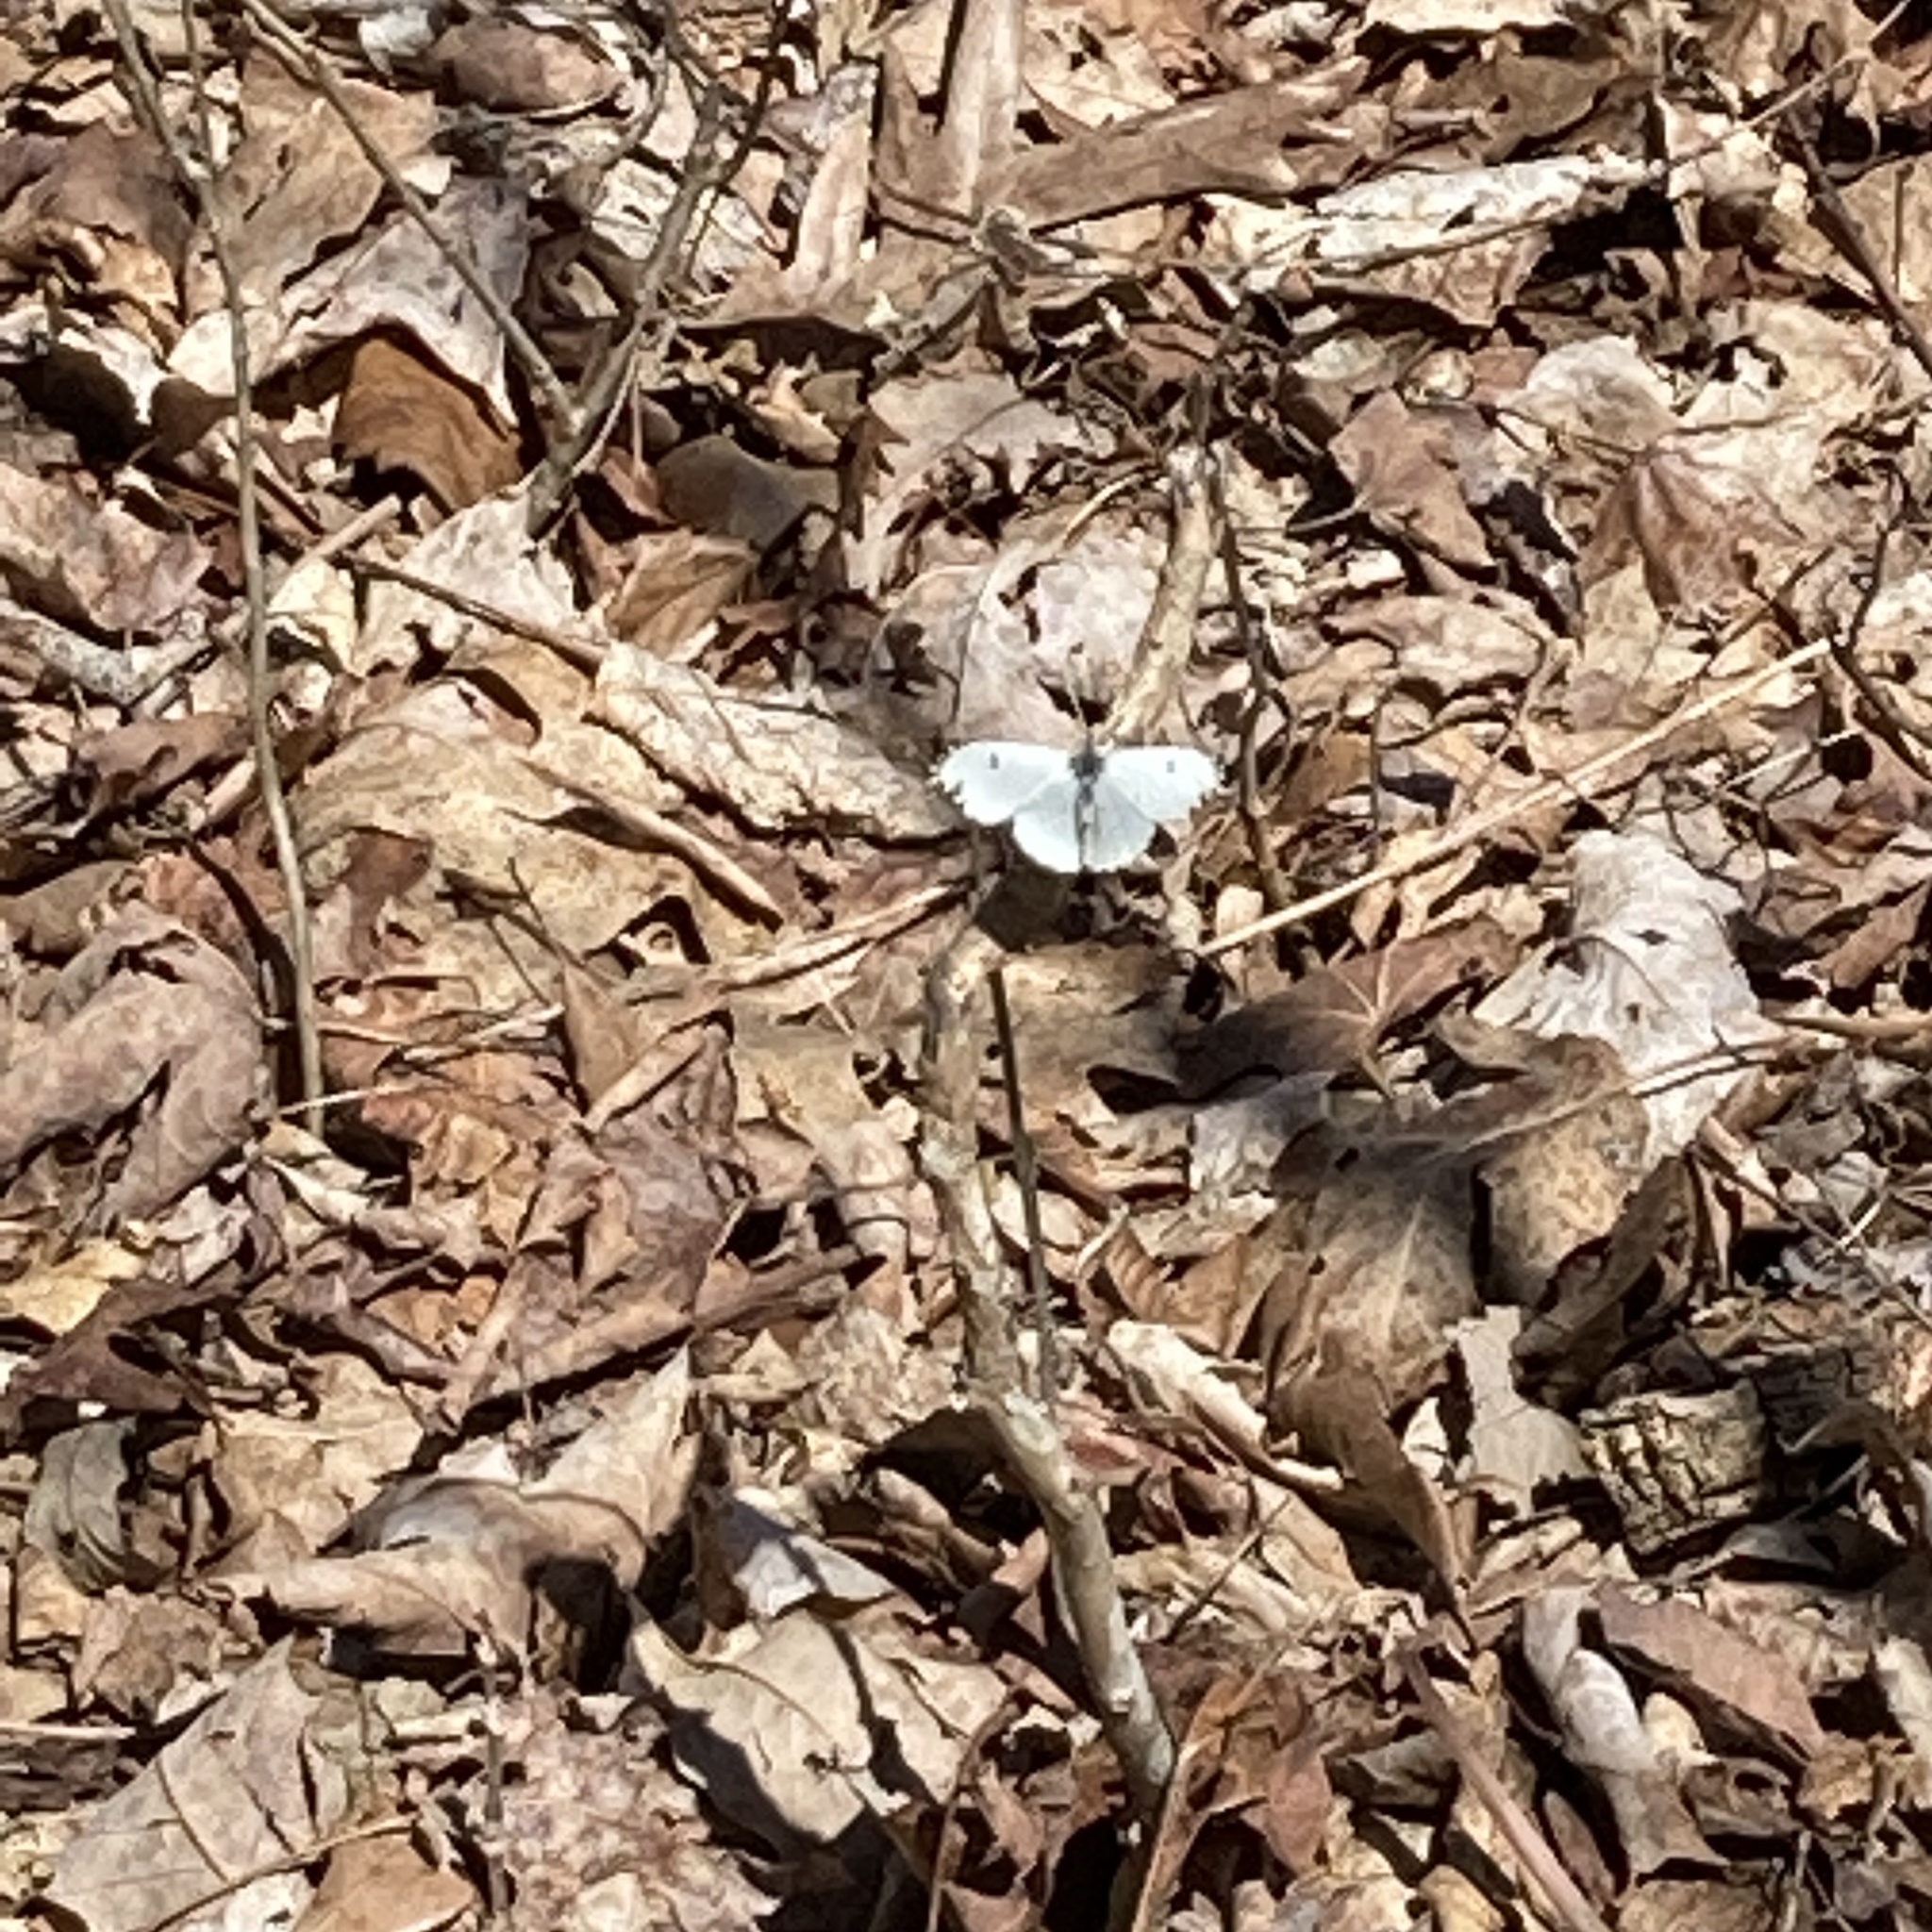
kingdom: Animalia
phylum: Arthropoda
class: Insecta
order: Lepidoptera
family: Pieridae
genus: Anthocharis
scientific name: Anthocharis midea
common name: Falcate orangetip
